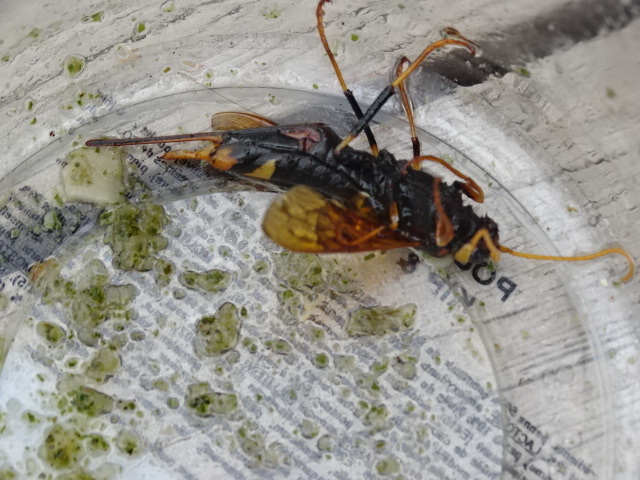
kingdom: Animalia
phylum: Arthropoda
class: Insecta
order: Hymenoptera
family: Siricidae
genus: Urocerus
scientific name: Urocerus sah
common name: Horntail wasp
